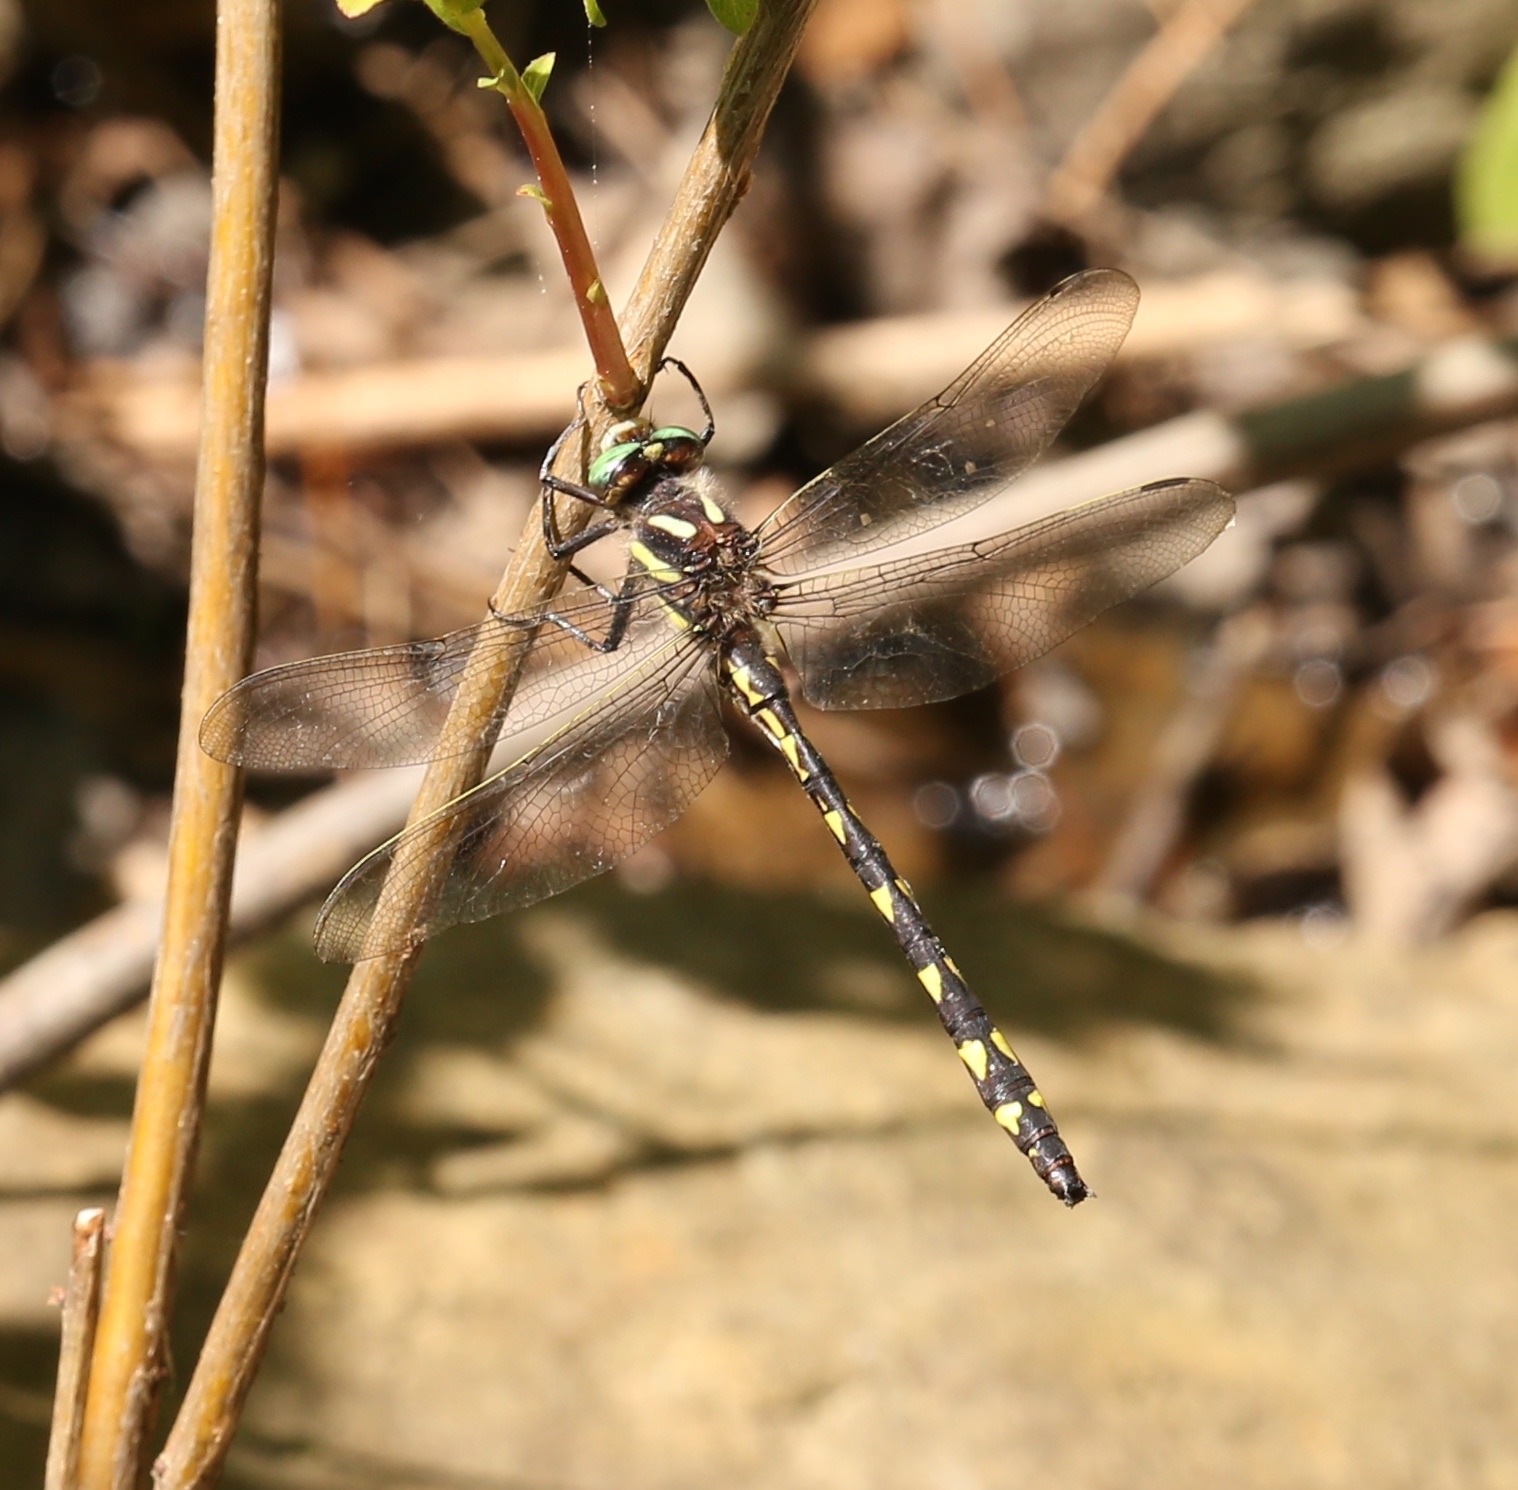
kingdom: Animalia
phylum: Arthropoda
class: Insecta
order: Odonata
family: Cordulegastridae
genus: Cordulegaster
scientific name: Cordulegaster diastatops
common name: Delta-spotted spiketail
